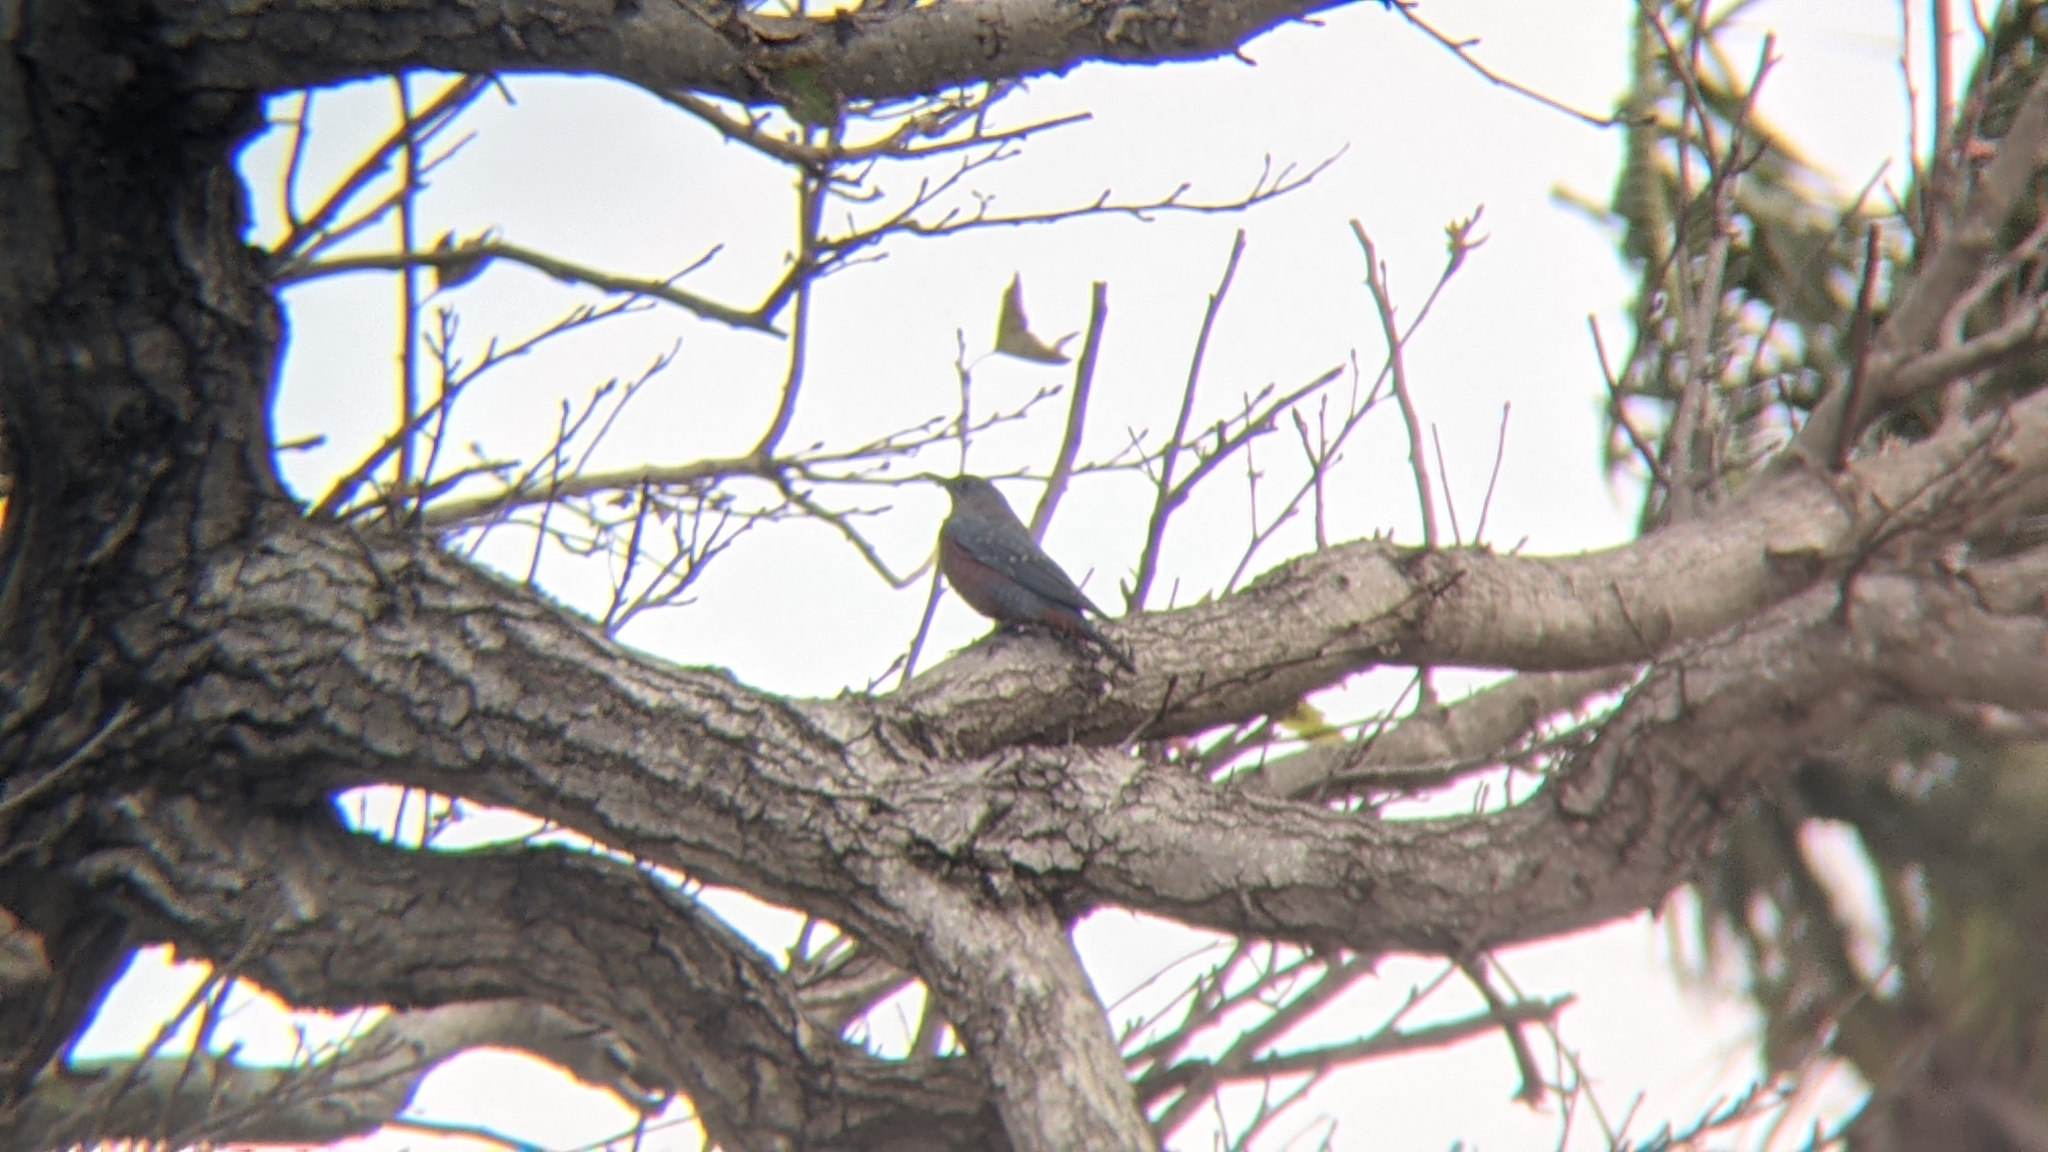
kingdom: Animalia
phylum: Chordata
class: Aves
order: Passeriformes
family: Muscicapidae
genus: Monticola
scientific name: Monticola solitarius
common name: Blue rock thrush
